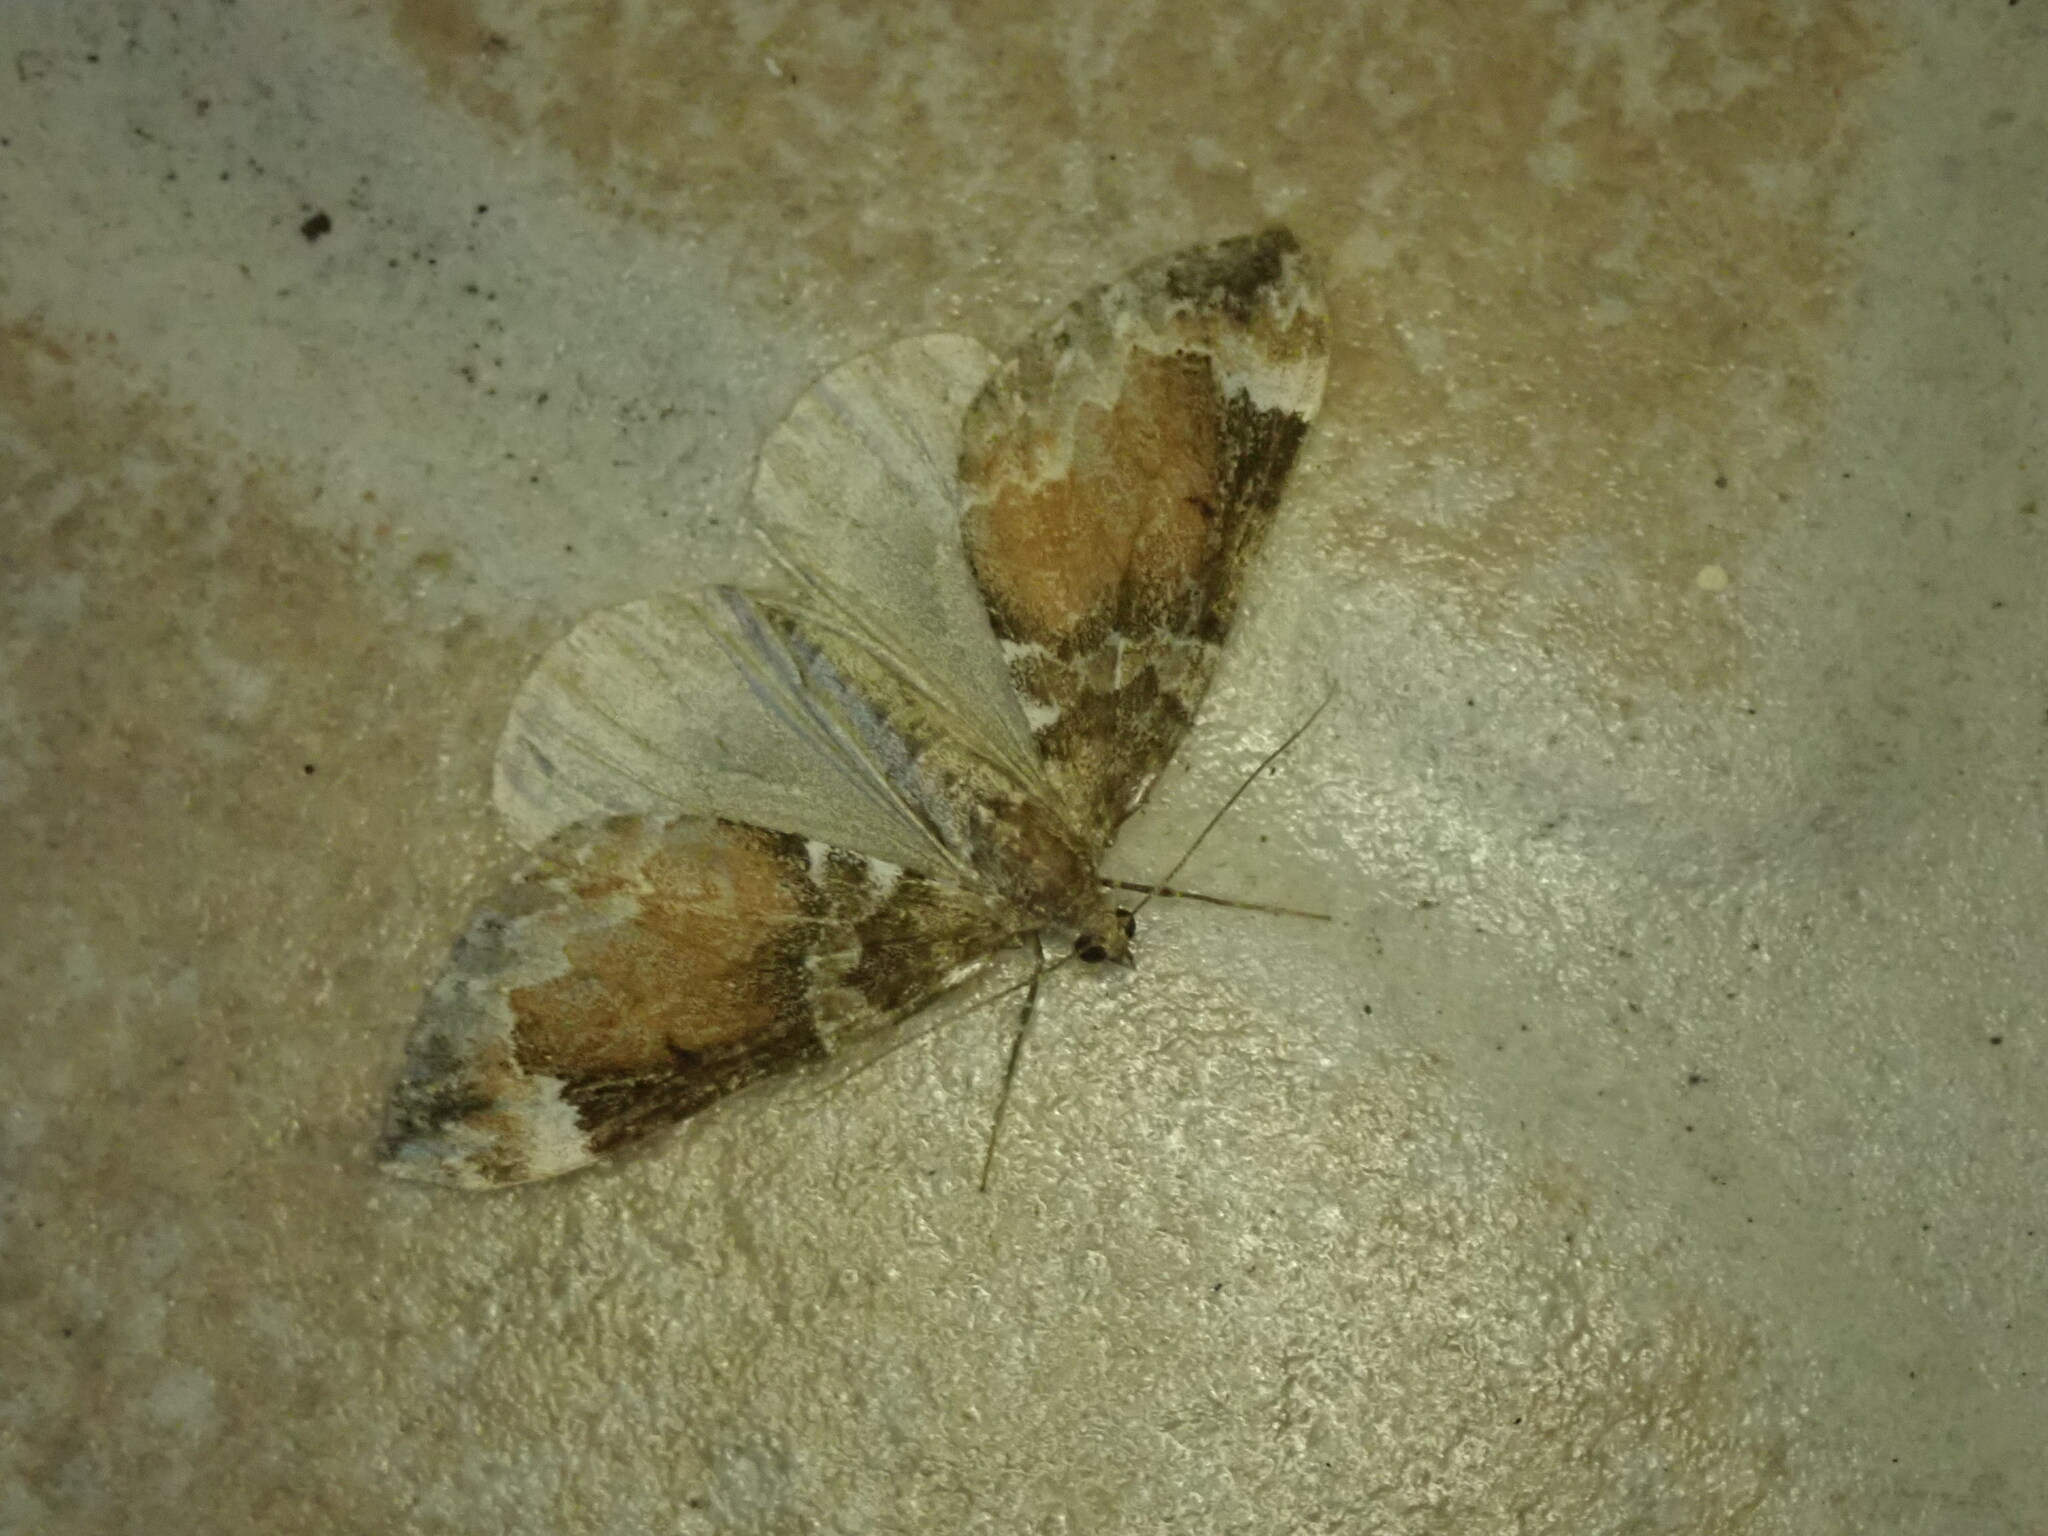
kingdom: Animalia
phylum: Arthropoda
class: Insecta
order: Lepidoptera
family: Geometridae
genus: Dysstroma
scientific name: Dysstroma truncata
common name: Common marbled carpet
